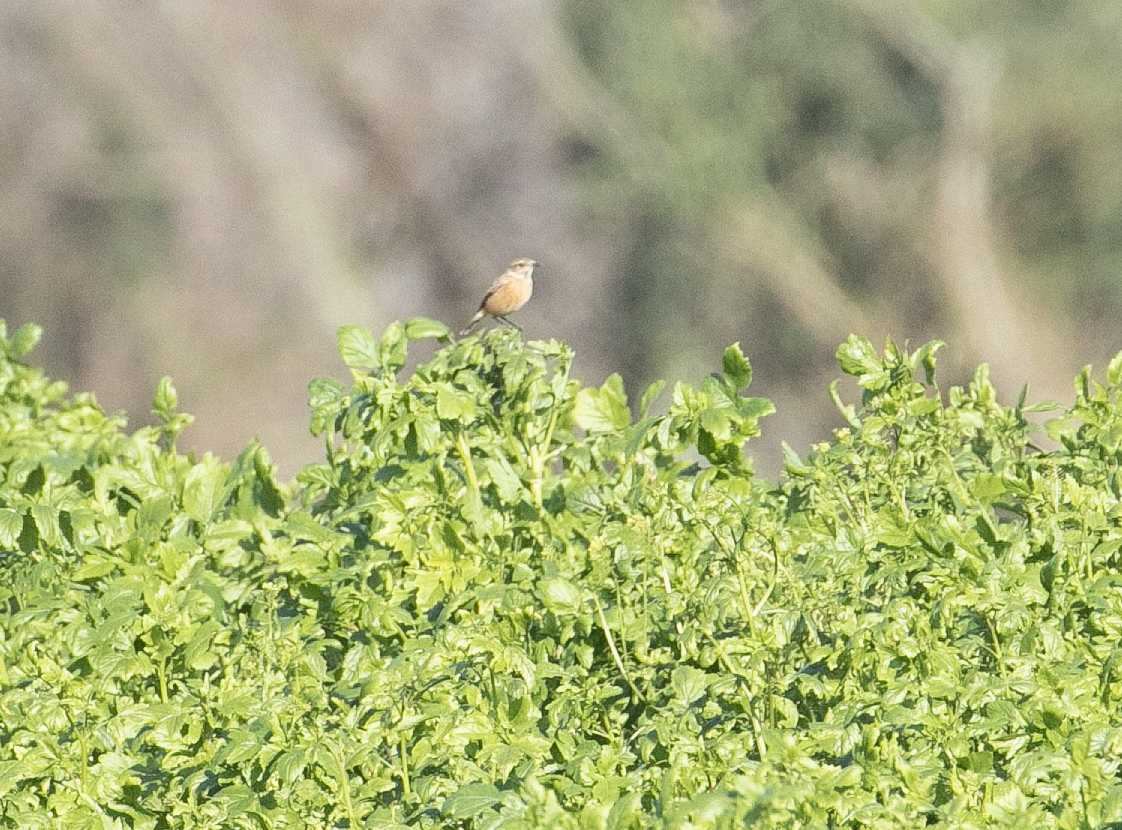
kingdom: Animalia
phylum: Chordata
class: Aves
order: Passeriformes
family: Muscicapidae
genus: Saxicola
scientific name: Saxicola rubicola
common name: European stonechat
